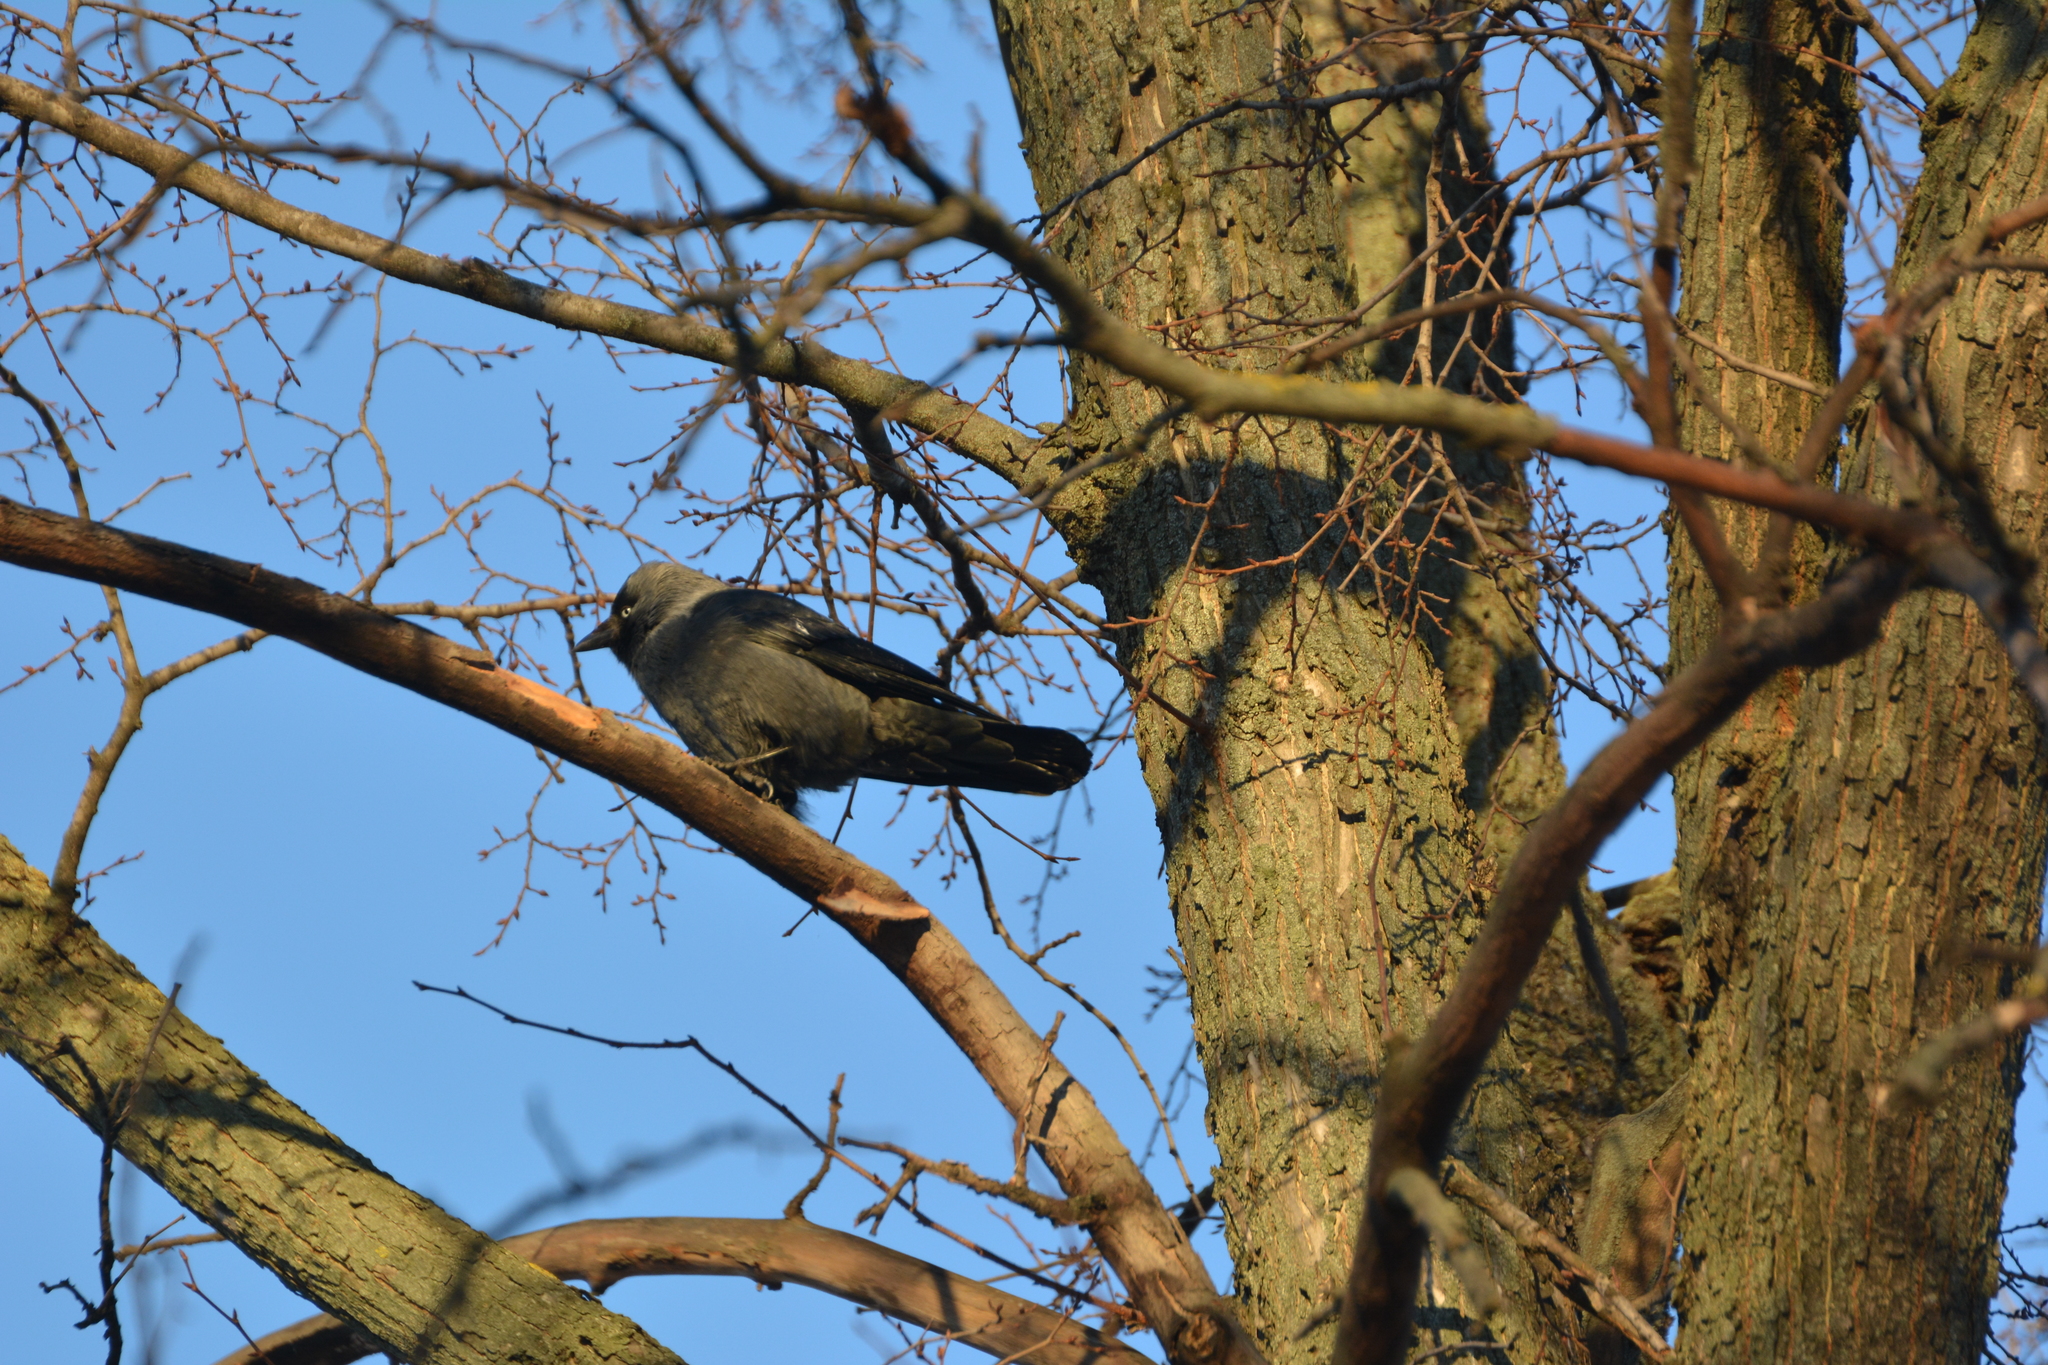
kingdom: Animalia
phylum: Chordata
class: Aves
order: Passeriformes
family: Corvidae
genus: Coloeus
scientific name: Coloeus monedula
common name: Western jackdaw
